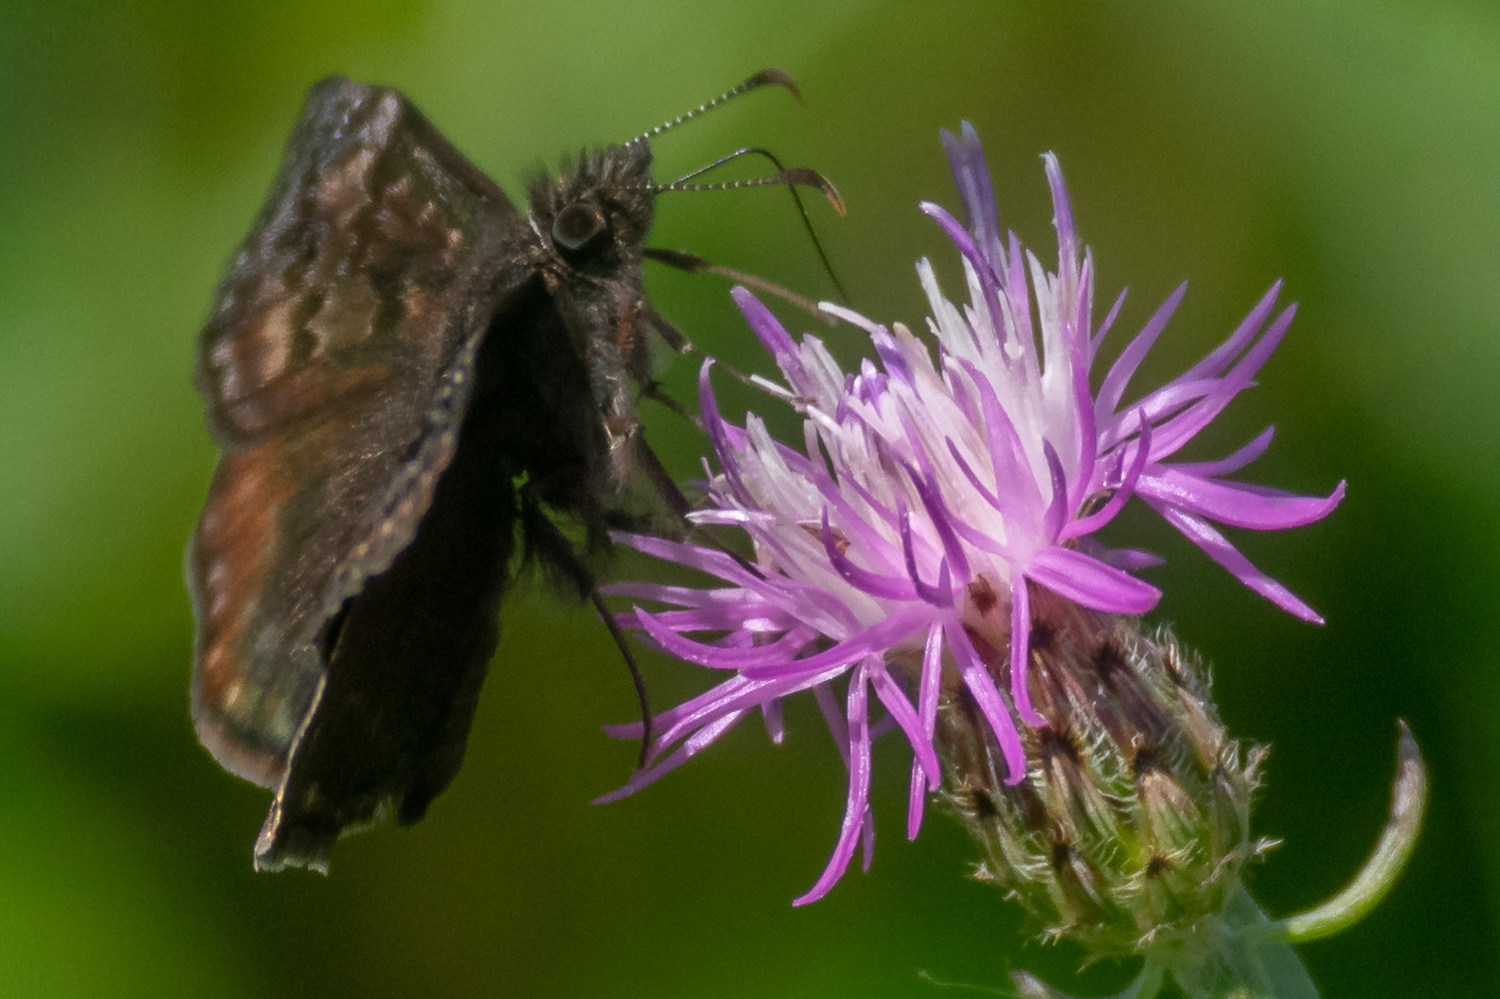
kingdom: Animalia
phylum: Arthropoda
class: Insecta
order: Lepidoptera
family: Hesperiidae
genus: Erynnis
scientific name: Erynnis baptisiae
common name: Wild indigo duskywing
